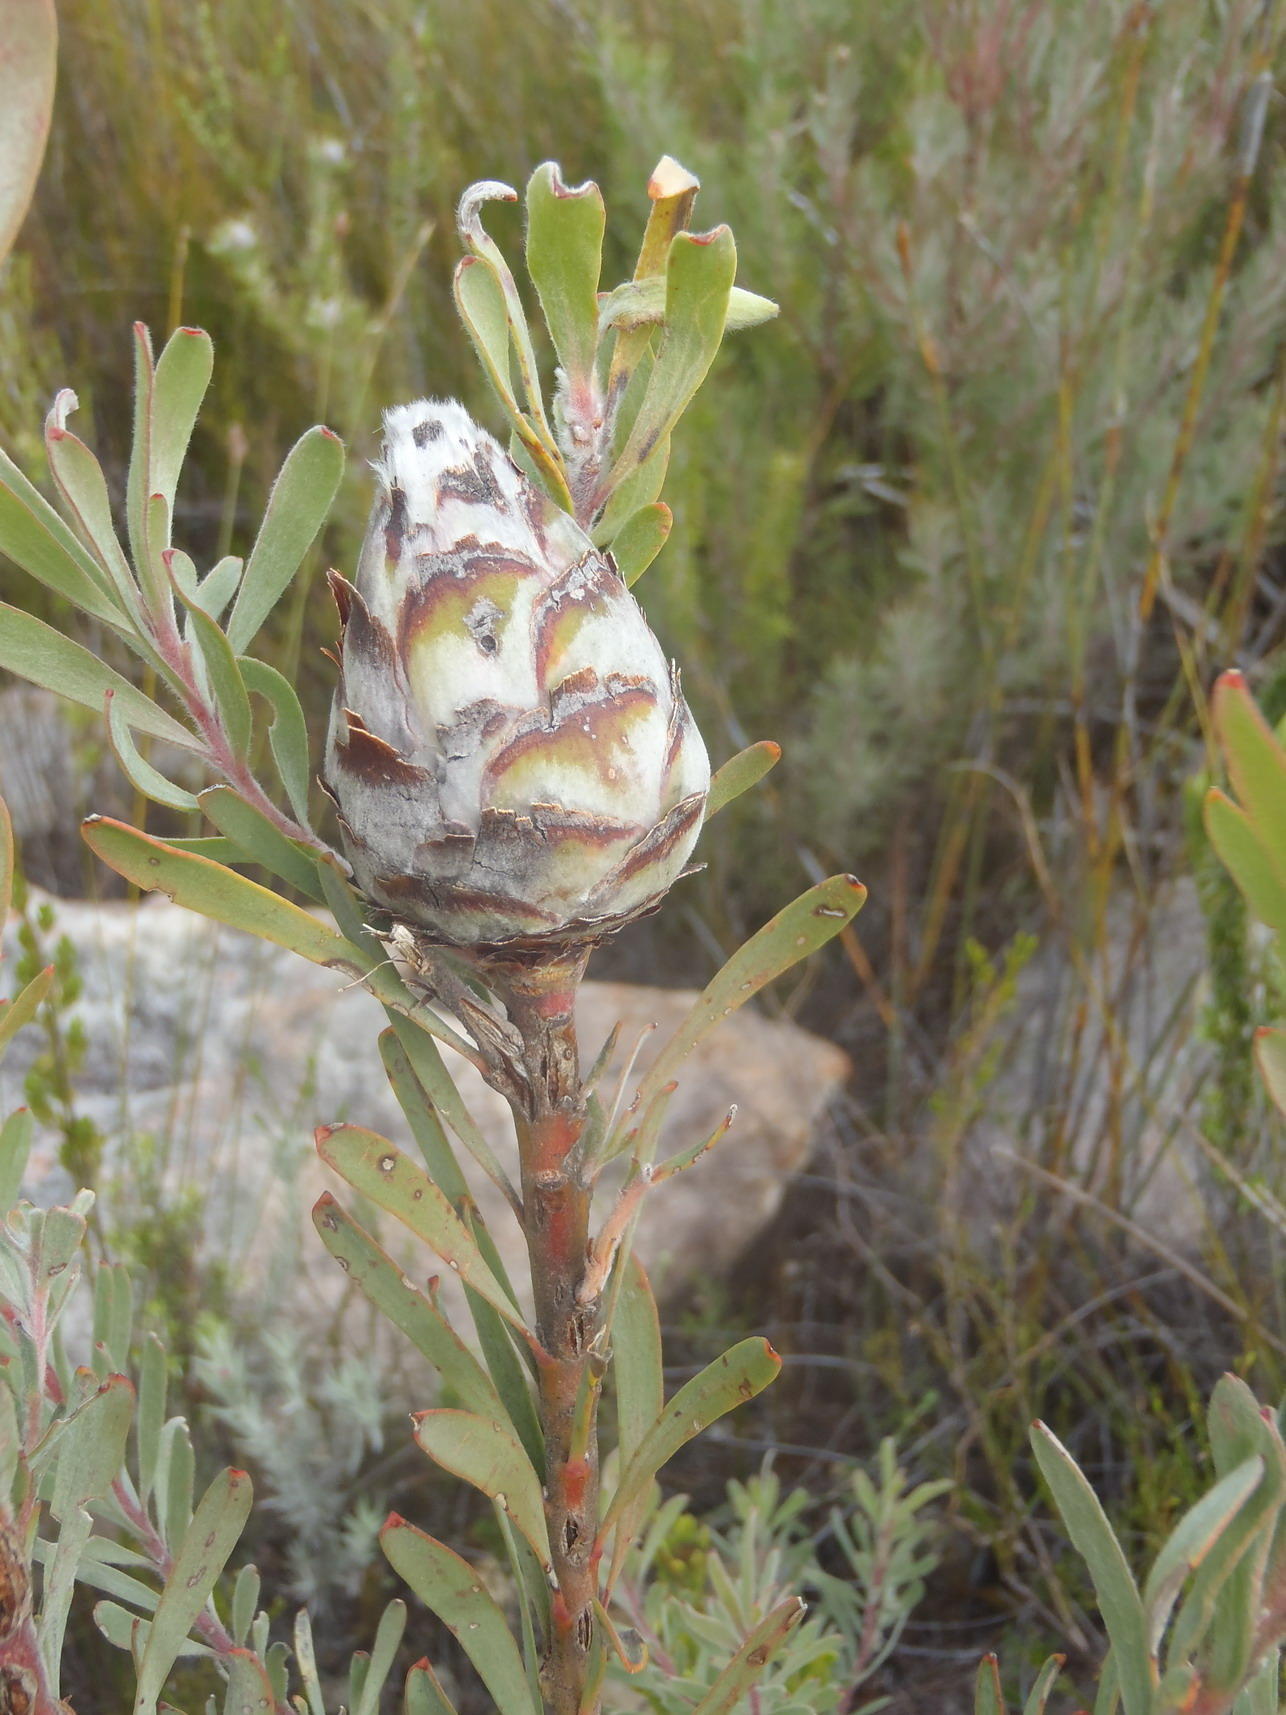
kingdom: Plantae
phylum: Tracheophyta
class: Magnoliopsida
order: Proteales
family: Proteaceae
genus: Leucadendron
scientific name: Leucadendron rubrum
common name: Spinning top
